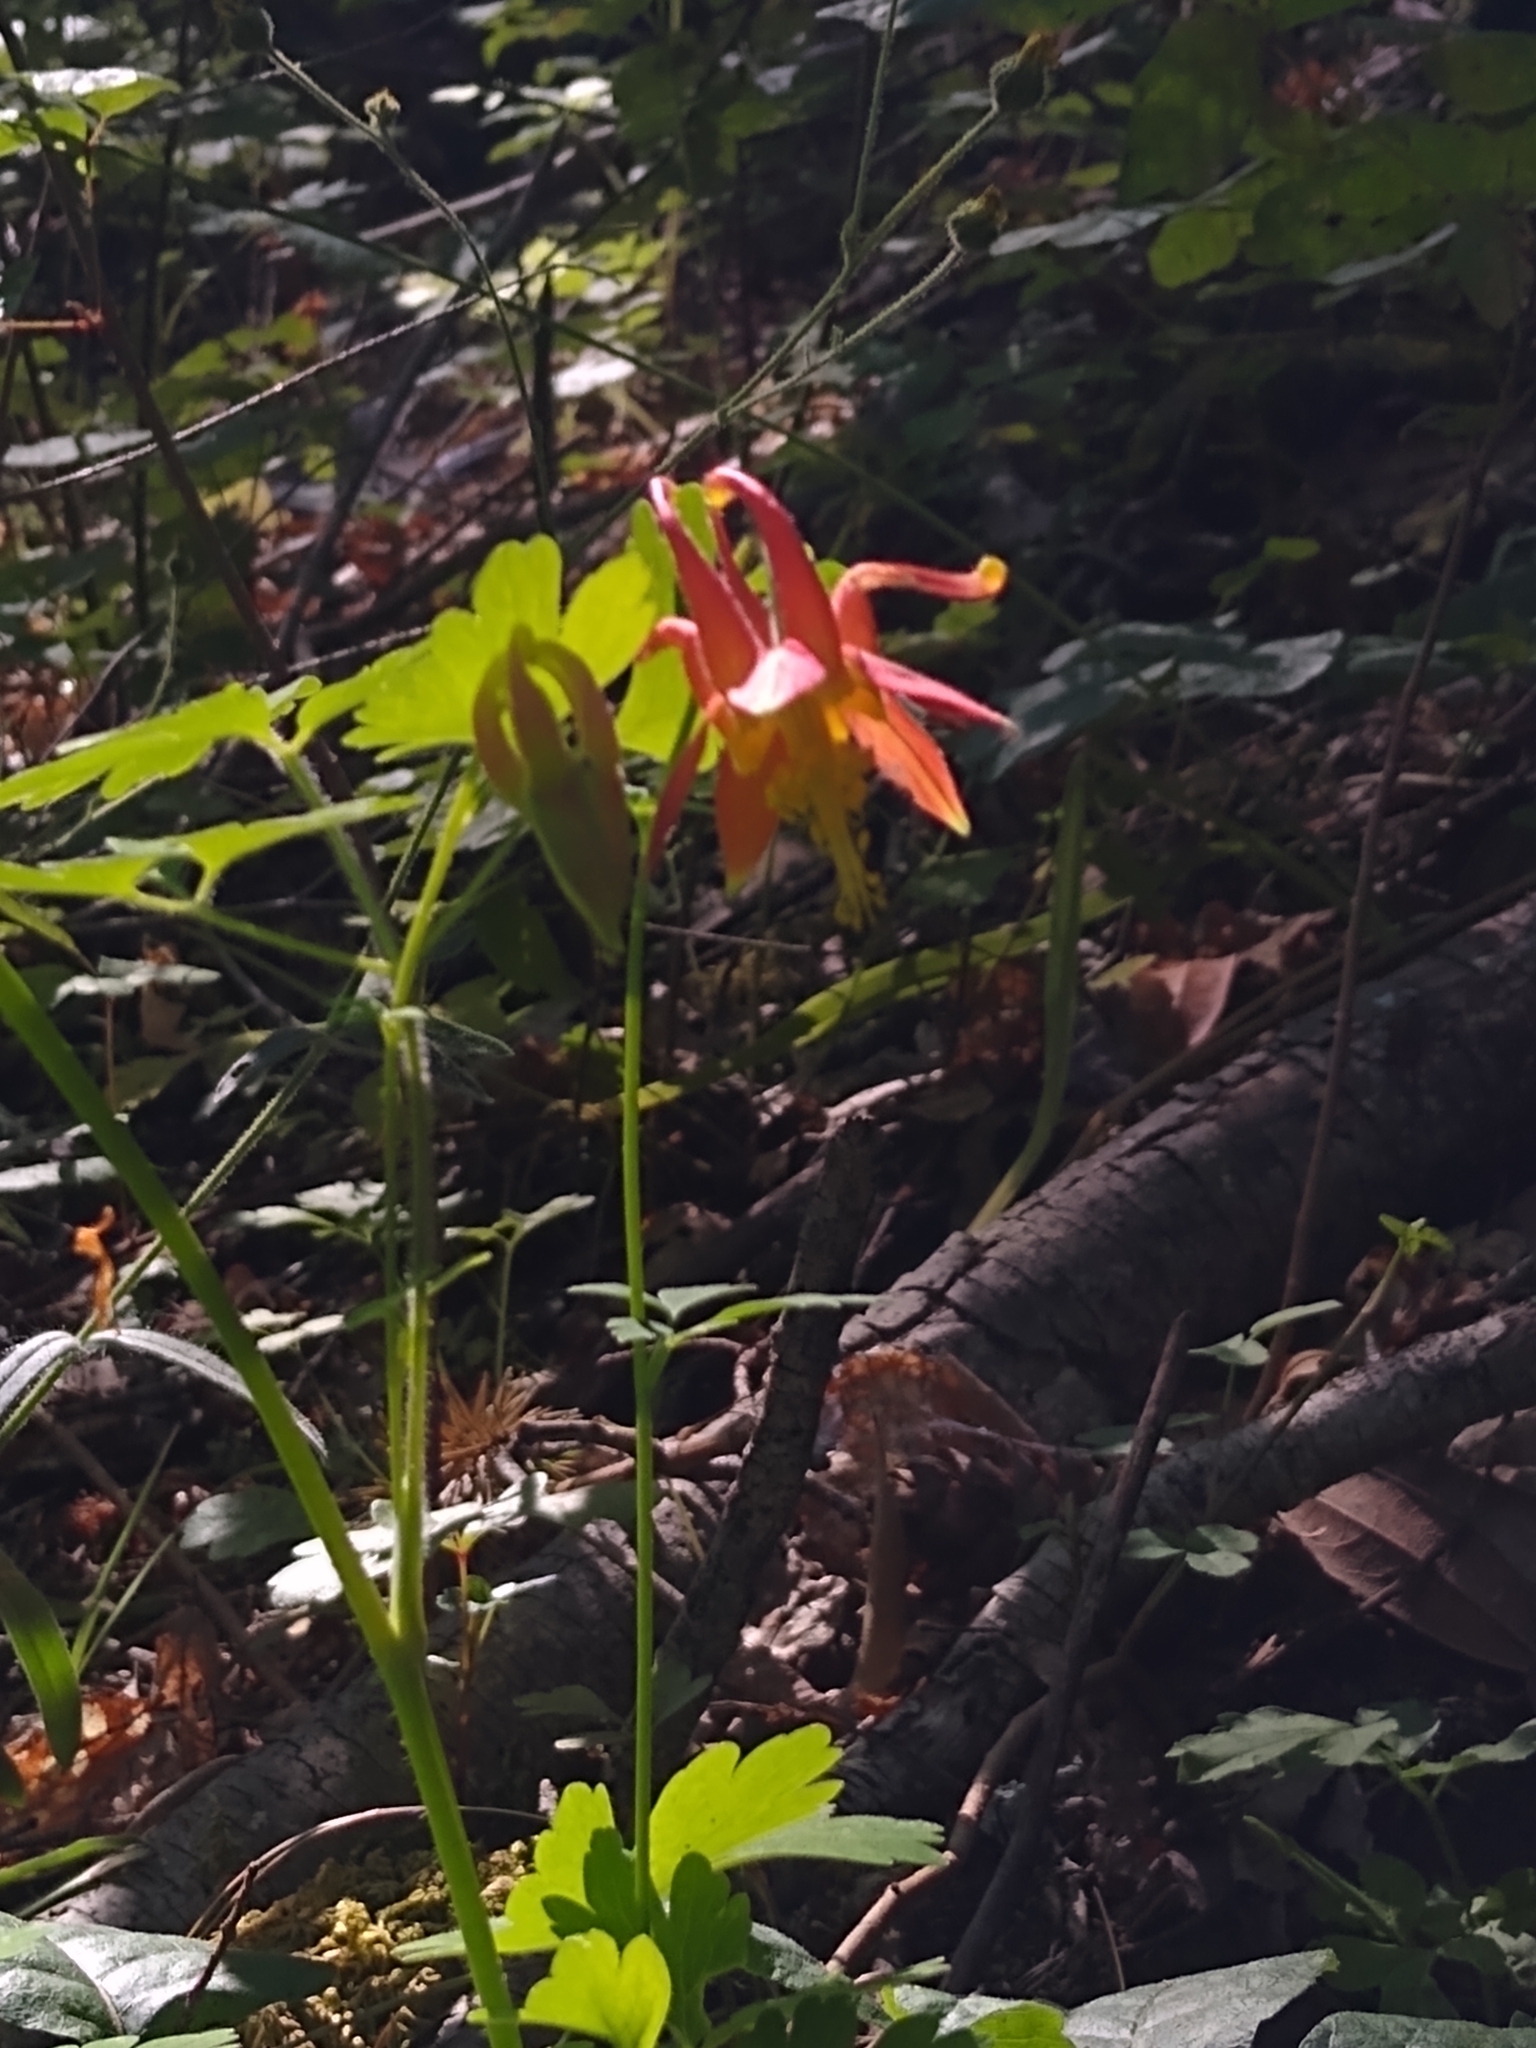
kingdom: Plantae
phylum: Tracheophyta
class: Magnoliopsida
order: Ranunculales
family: Ranunculaceae
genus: Aquilegia
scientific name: Aquilegia formosa
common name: Sitka columbine
